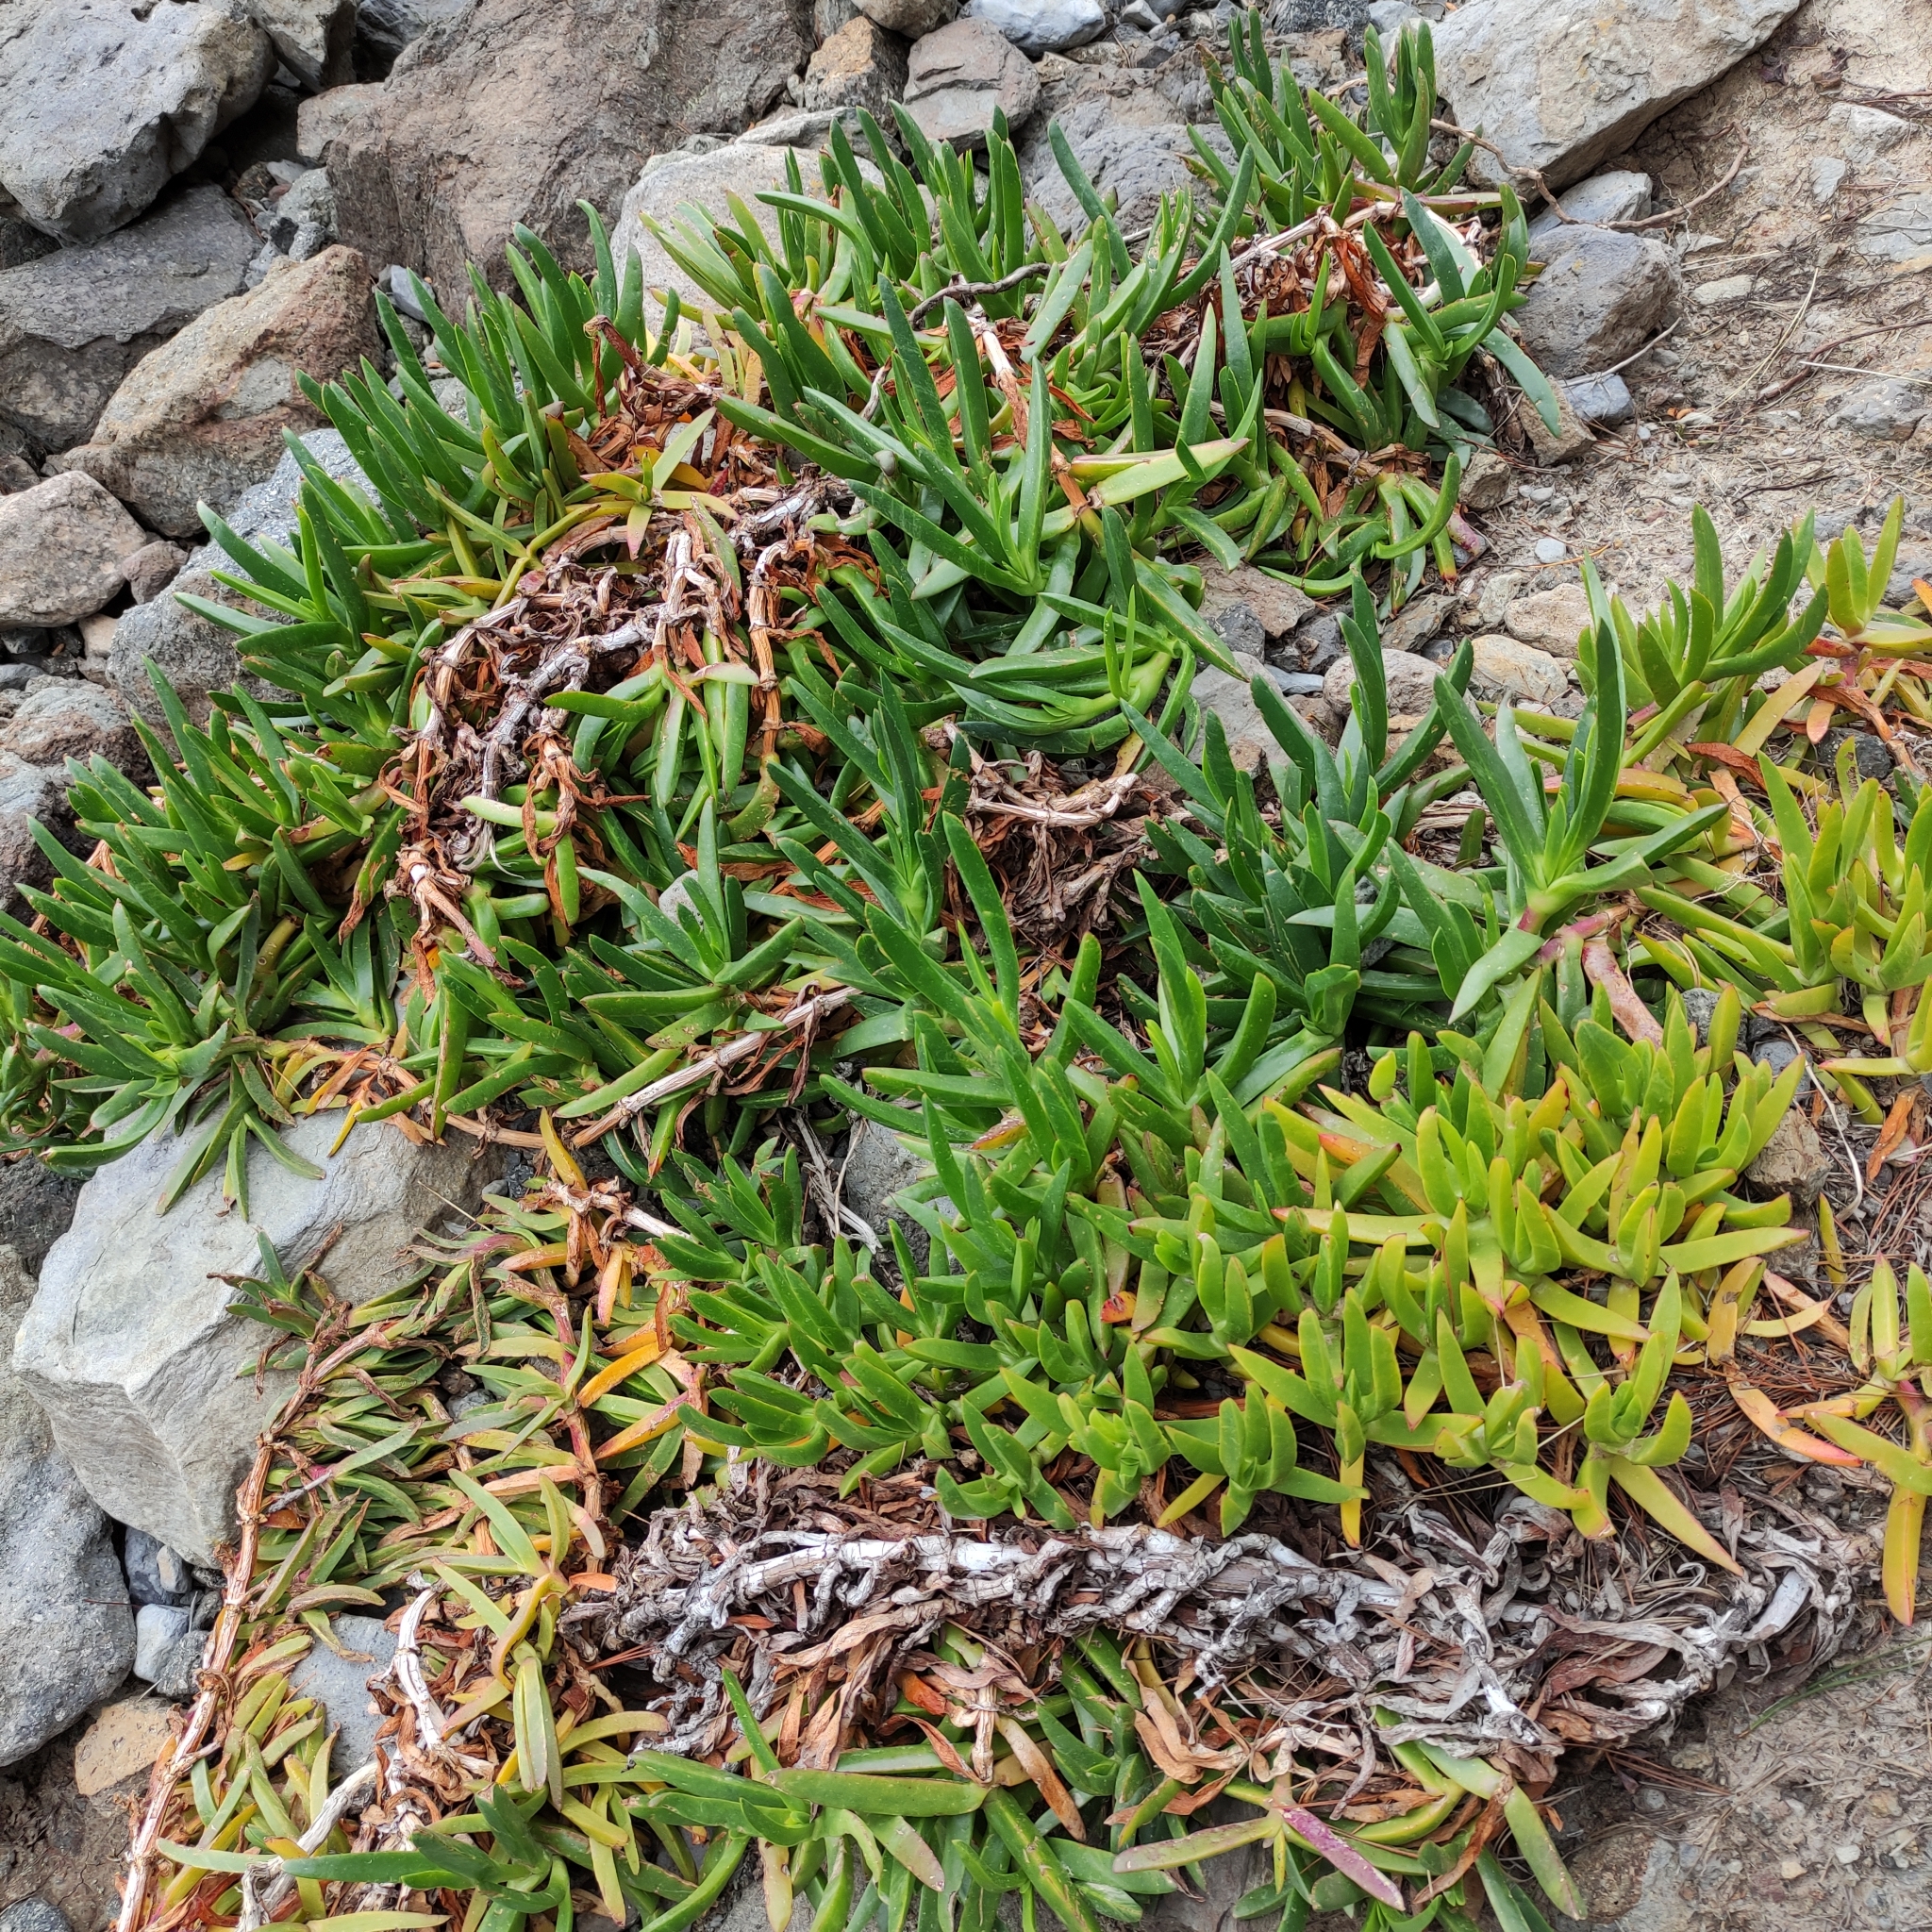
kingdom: Plantae
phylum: Tracheophyta
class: Magnoliopsida
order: Caryophyllales
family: Aizoaceae
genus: Carpobrotus
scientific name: Carpobrotus edulis
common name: Hottentot-fig
